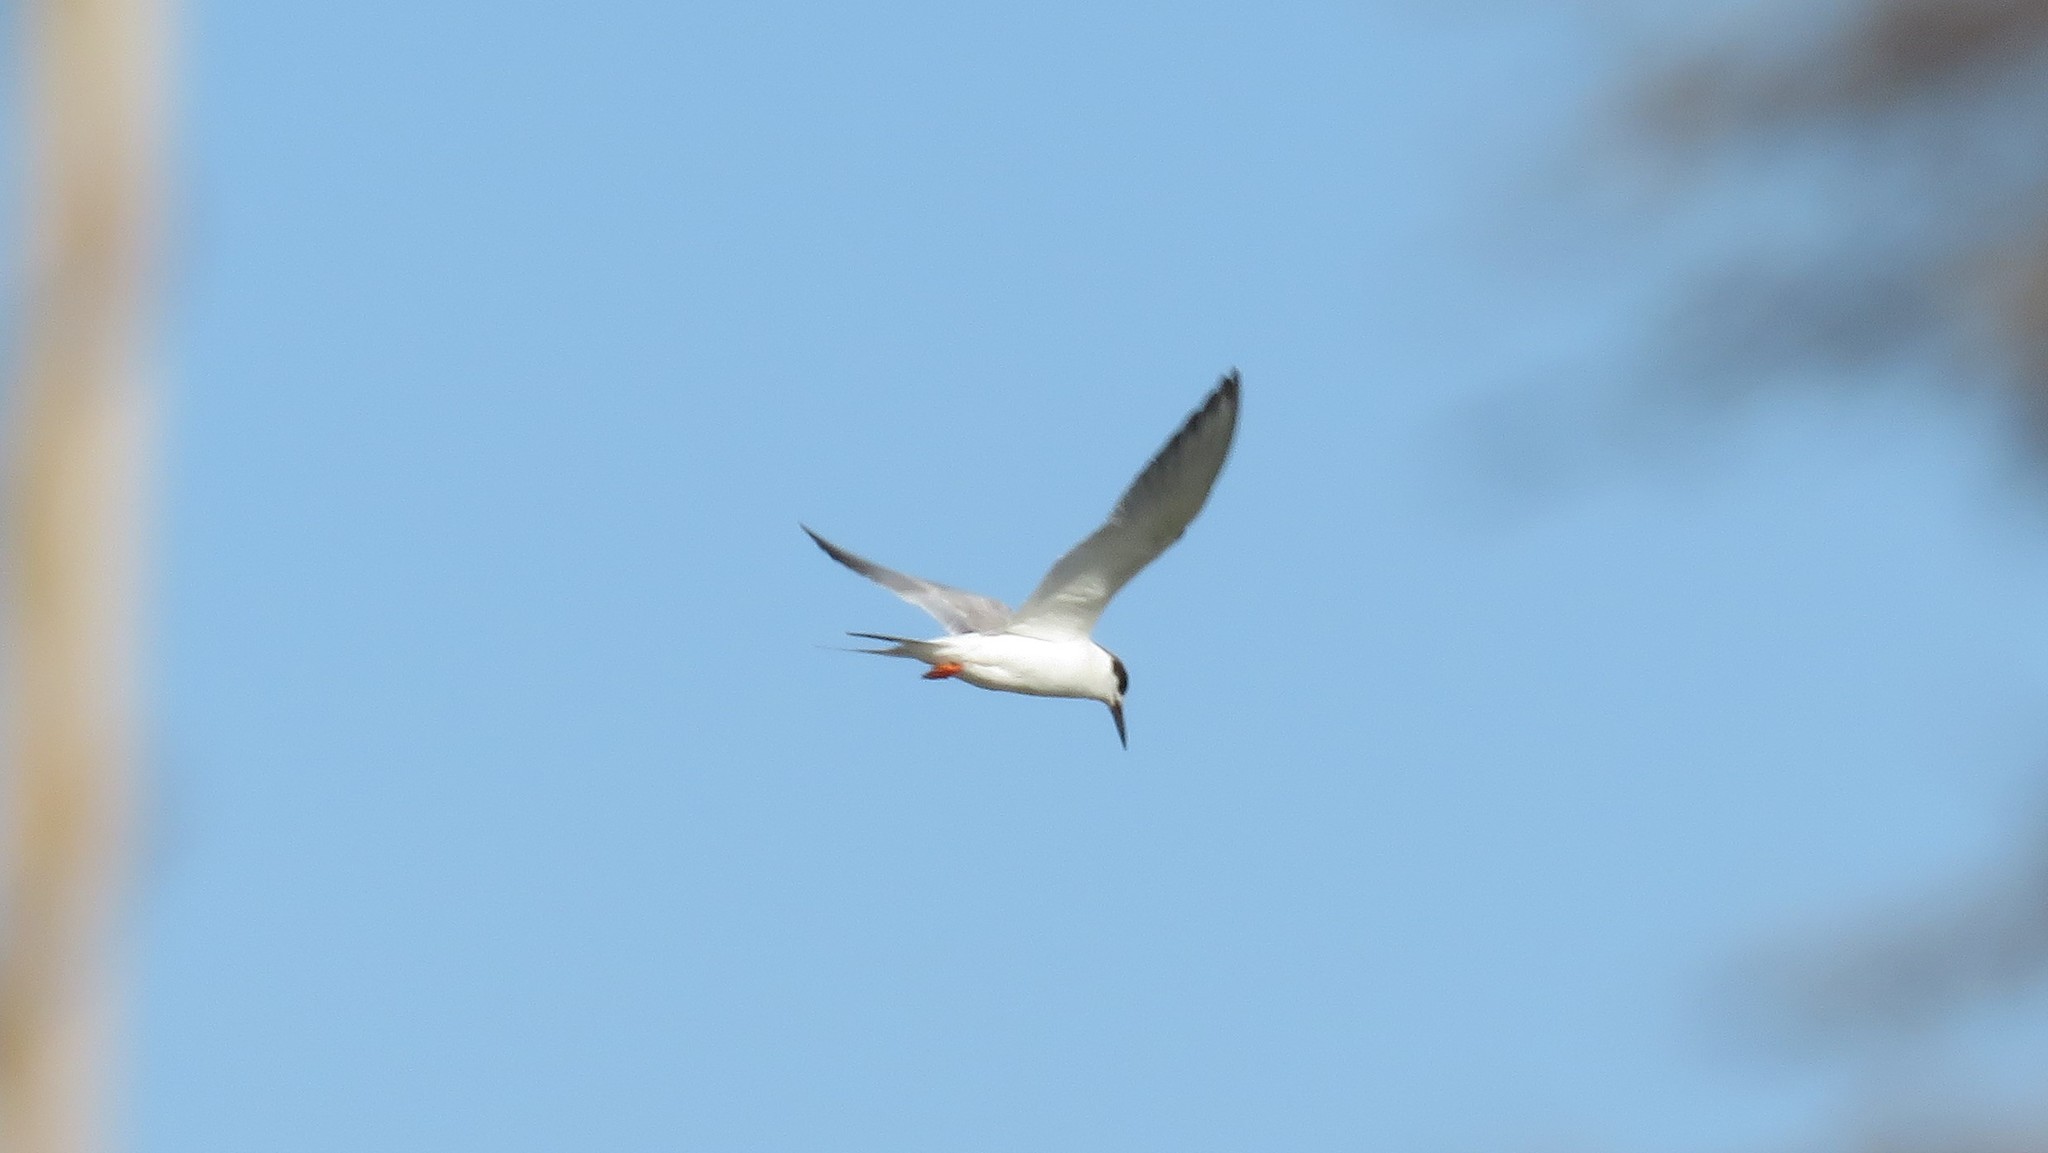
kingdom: Animalia
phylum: Chordata
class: Aves
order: Charadriiformes
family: Laridae
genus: Sterna
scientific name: Sterna forsteri
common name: Forster's tern
